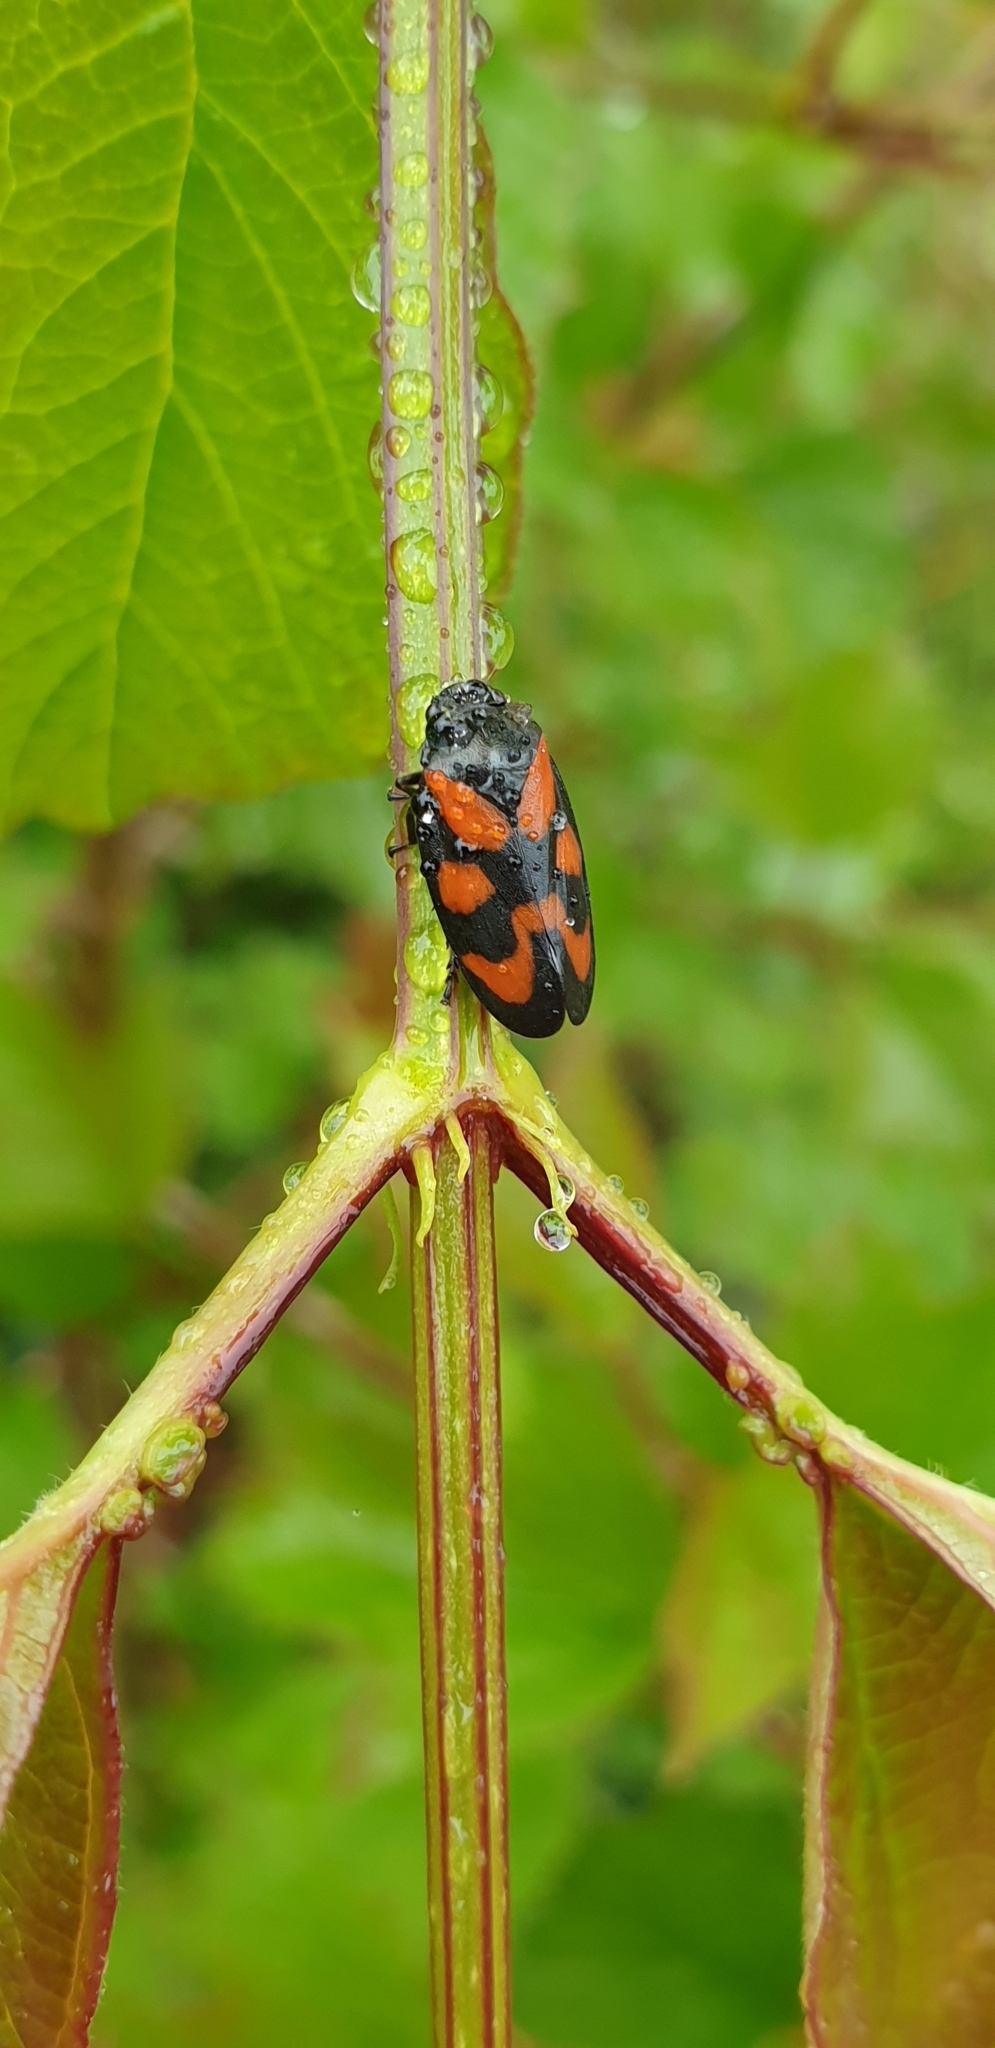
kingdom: Animalia
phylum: Arthropoda
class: Insecta
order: Hemiptera
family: Cercopidae
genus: Cercopis
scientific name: Cercopis vulnerata
